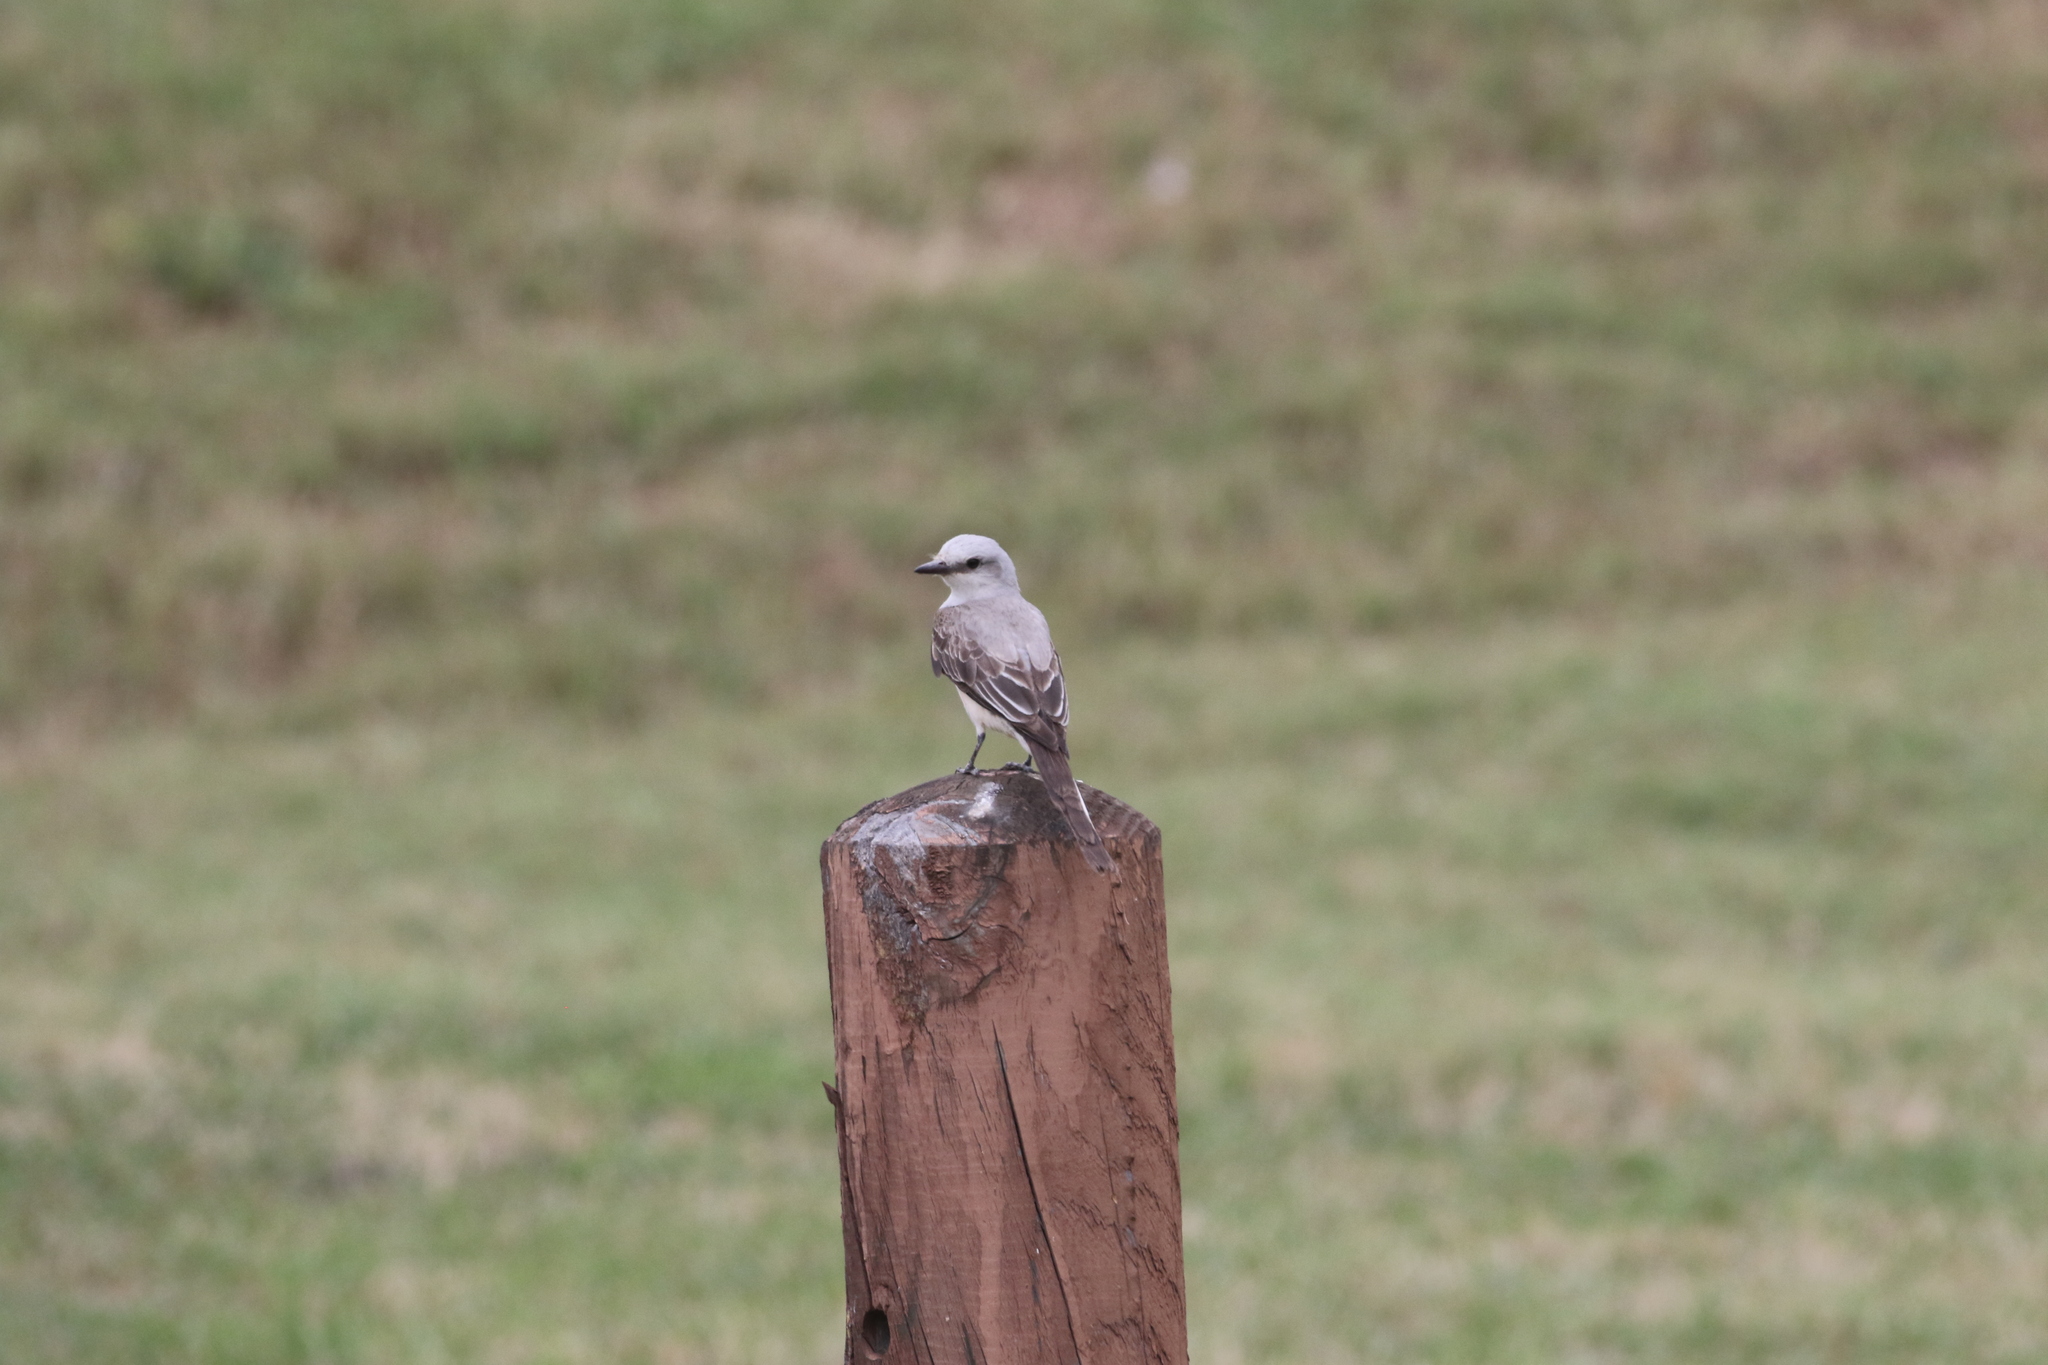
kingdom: Animalia
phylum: Chordata
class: Aves
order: Passeriformes
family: Tyrannidae
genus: Tyrannus
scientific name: Tyrannus forficatus
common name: Scissor-tailed flycatcher
